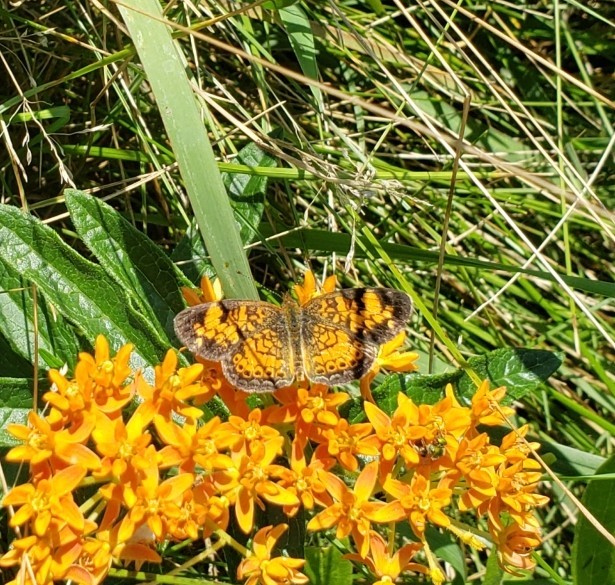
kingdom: Animalia
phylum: Arthropoda
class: Insecta
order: Lepidoptera
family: Nymphalidae
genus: Phyciodes
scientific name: Phyciodes tharos
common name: Pearl crescent
